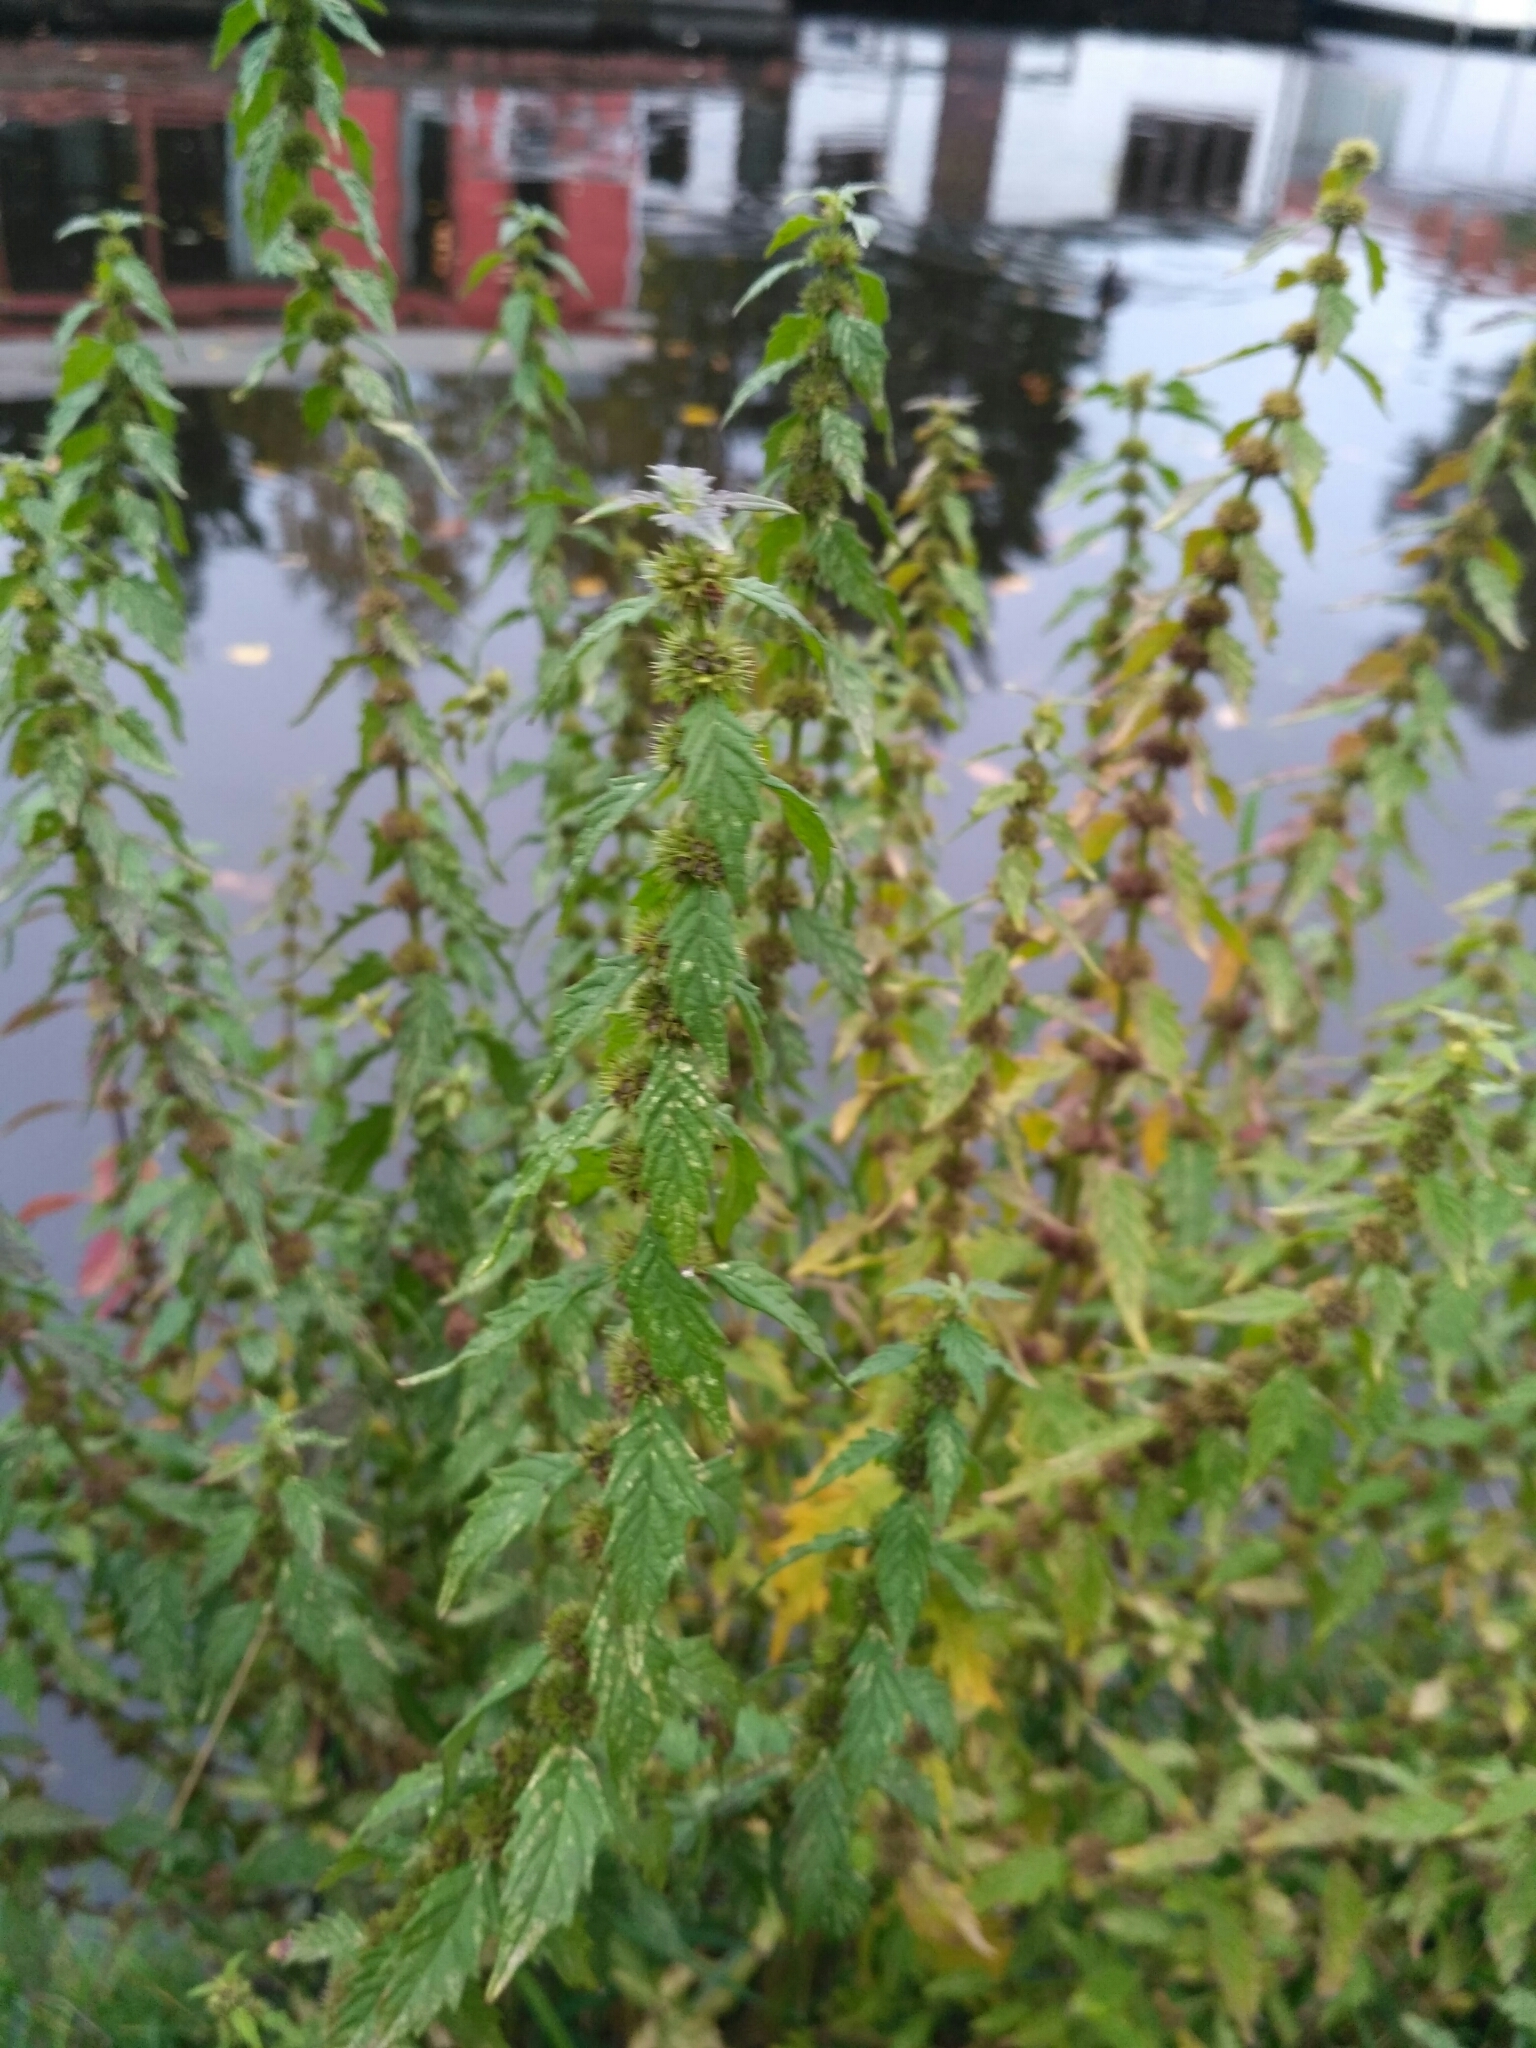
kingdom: Plantae
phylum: Tracheophyta
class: Magnoliopsida
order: Lamiales
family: Lamiaceae
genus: Lycopus
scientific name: Lycopus europaeus
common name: European bugleweed
